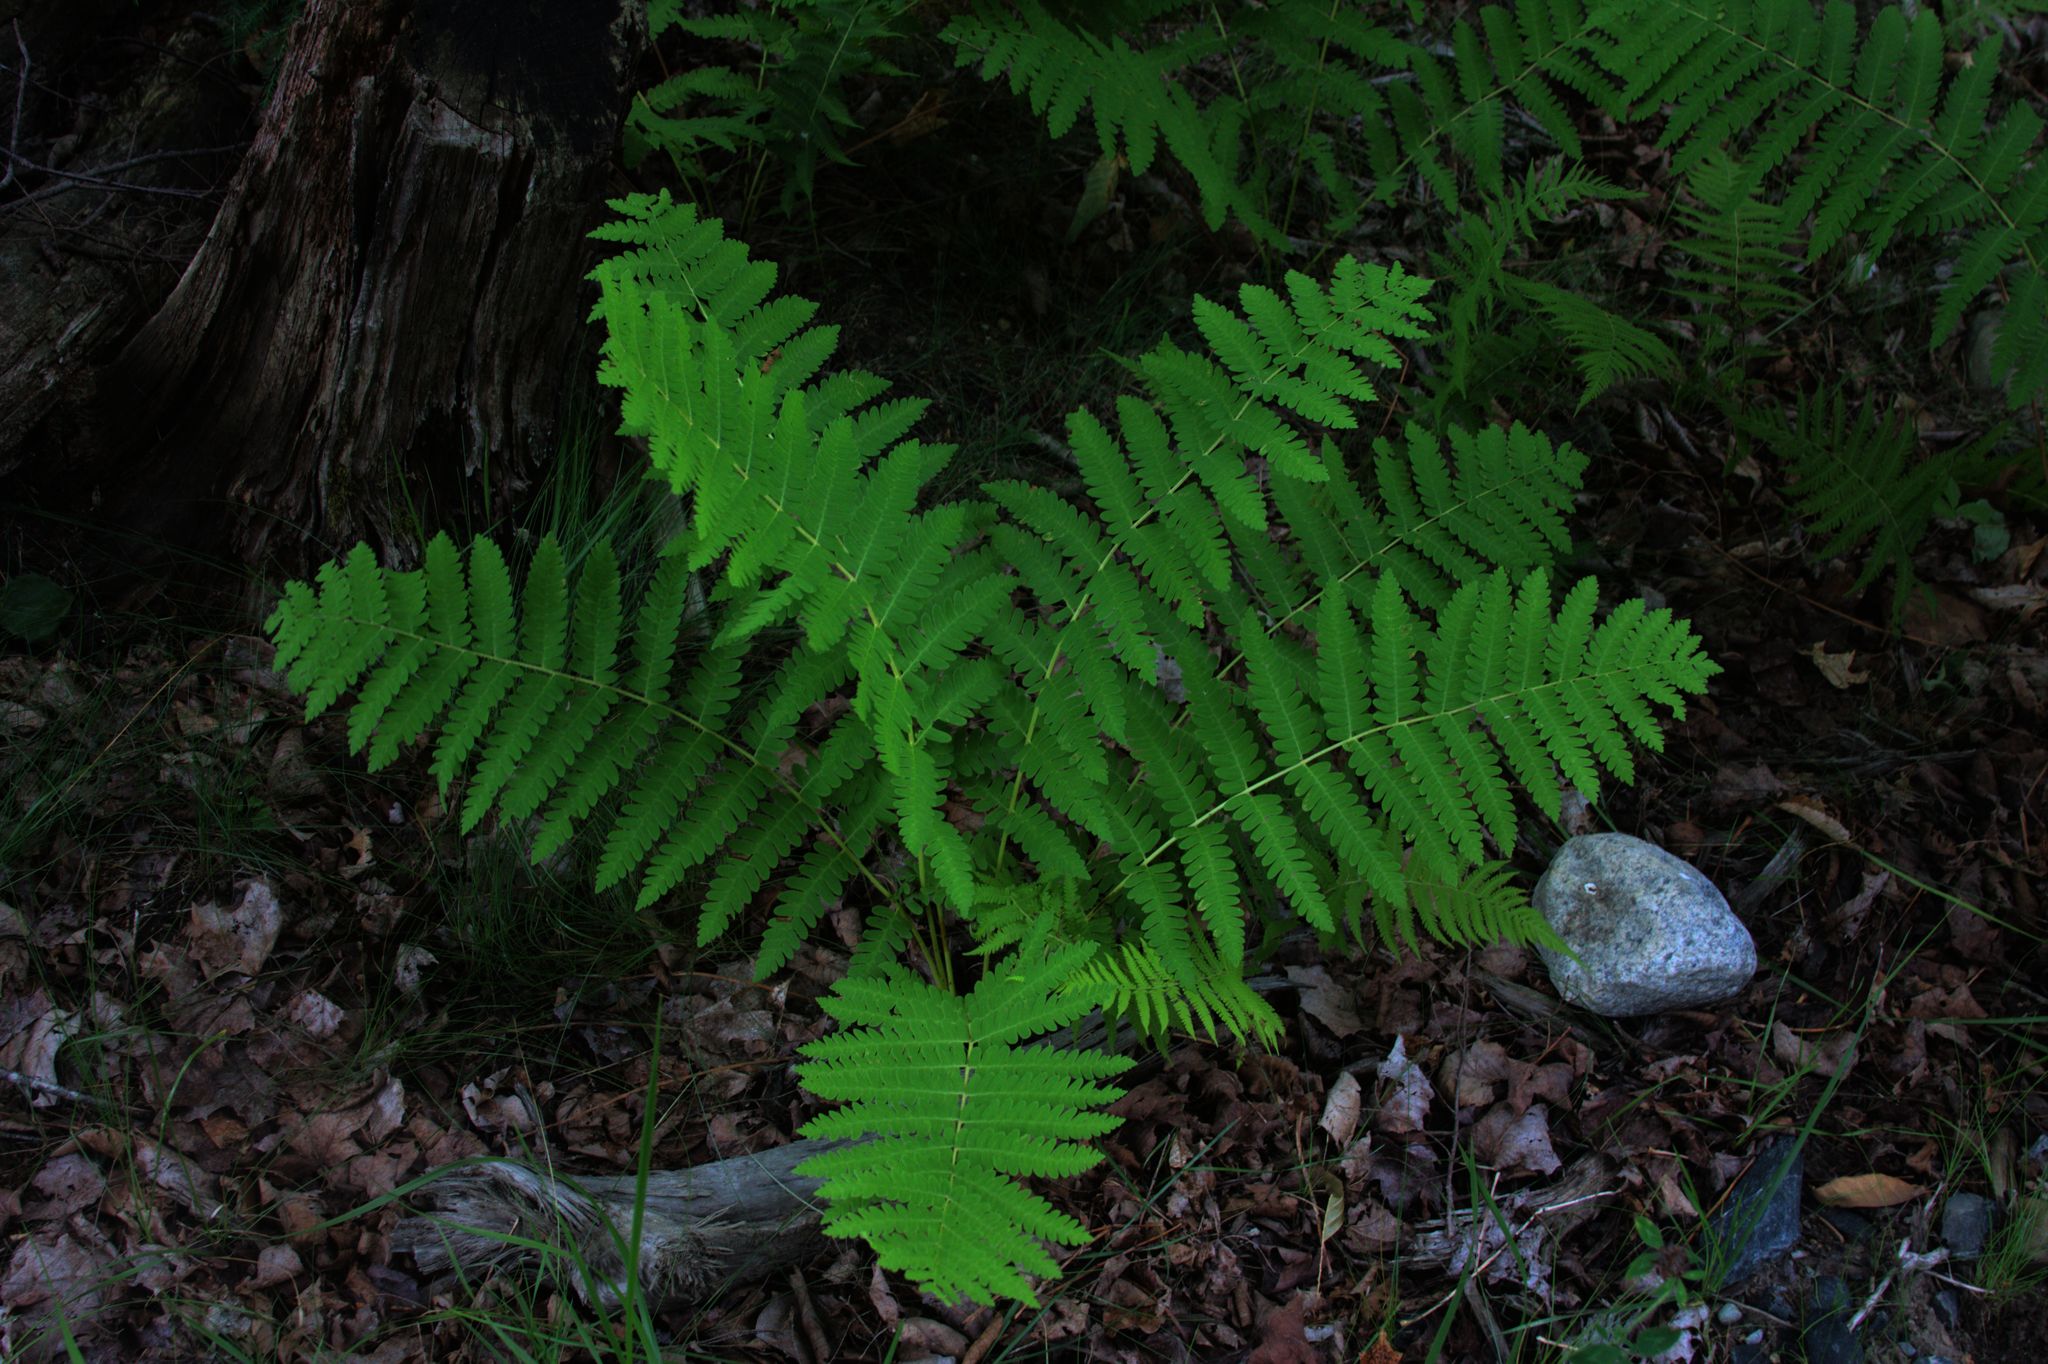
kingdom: Plantae
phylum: Tracheophyta
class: Polypodiopsida
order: Osmundales
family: Osmundaceae
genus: Claytosmunda
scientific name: Claytosmunda claytoniana
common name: Clayton's fern
